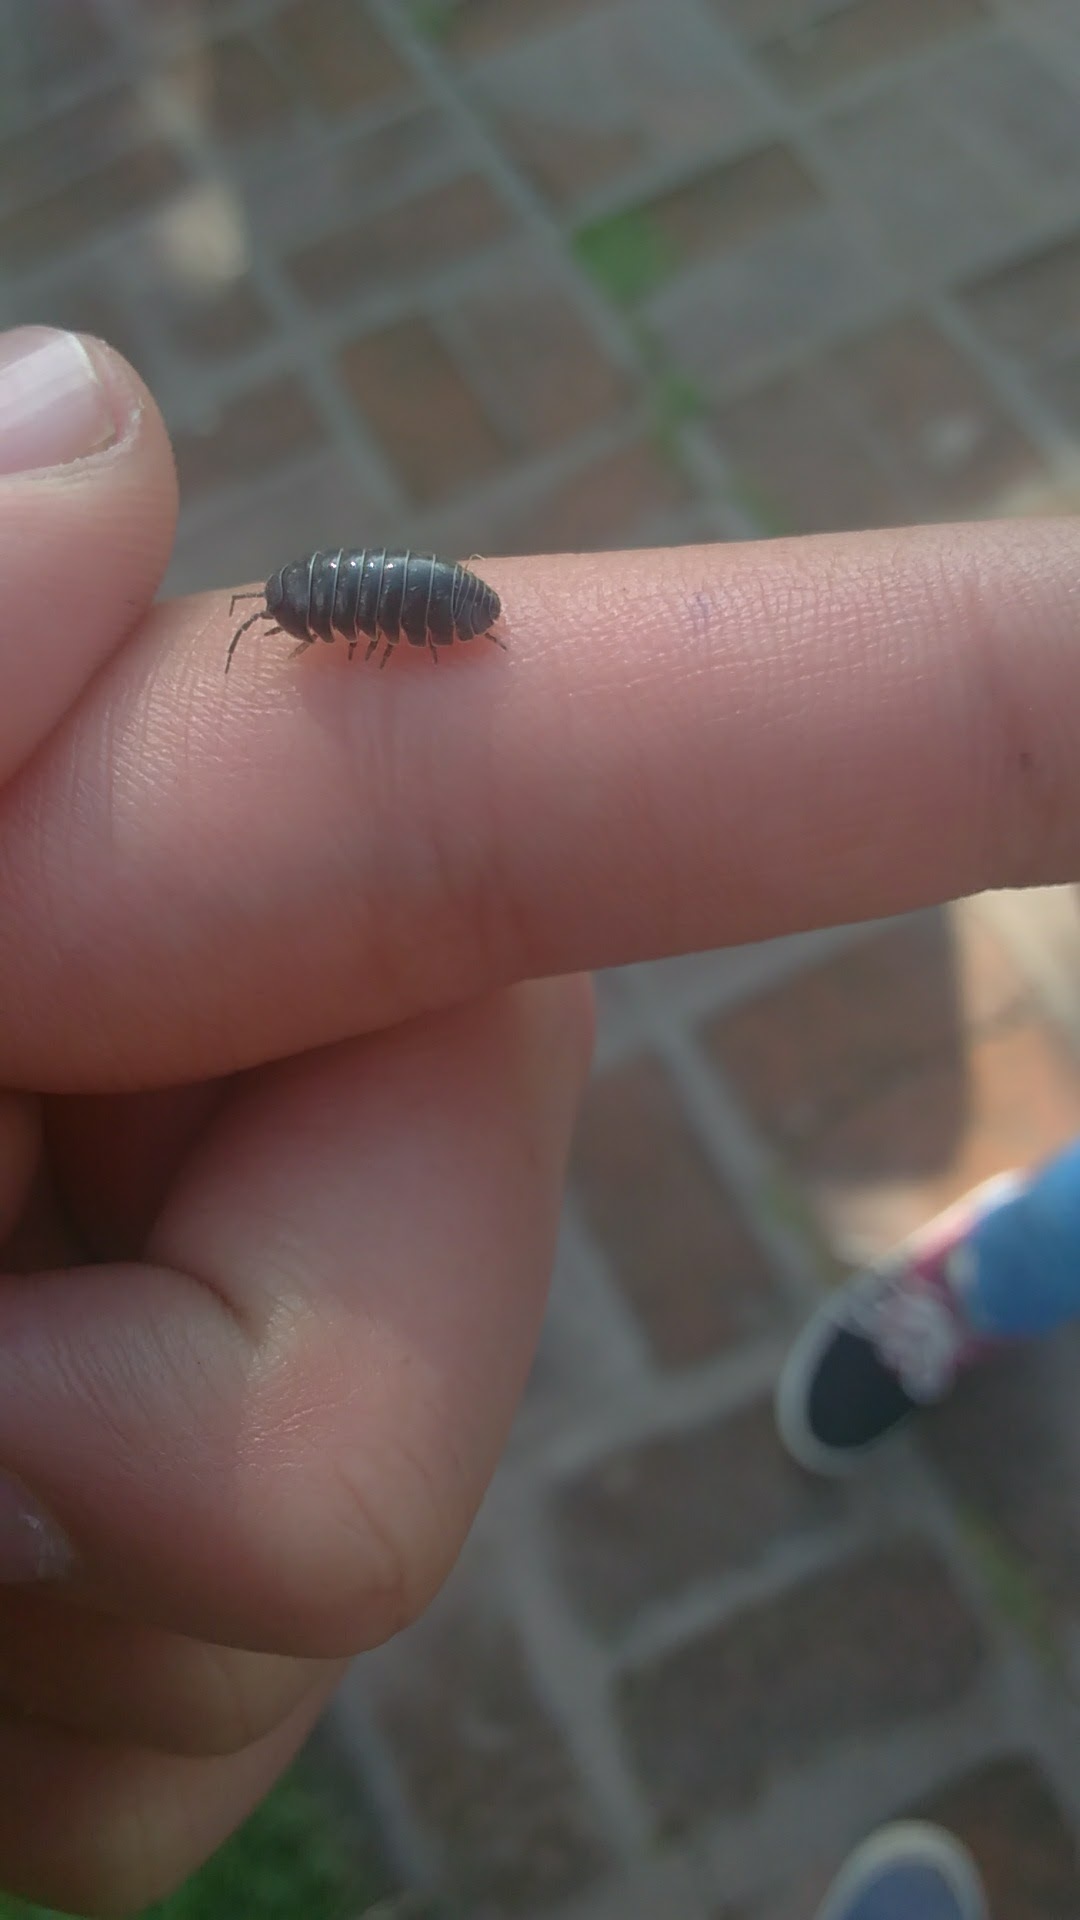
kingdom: Animalia
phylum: Arthropoda
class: Malacostraca
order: Isopoda
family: Armadillidiidae
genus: Armadillidium
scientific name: Armadillidium vulgare
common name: Common pill woodlouse
